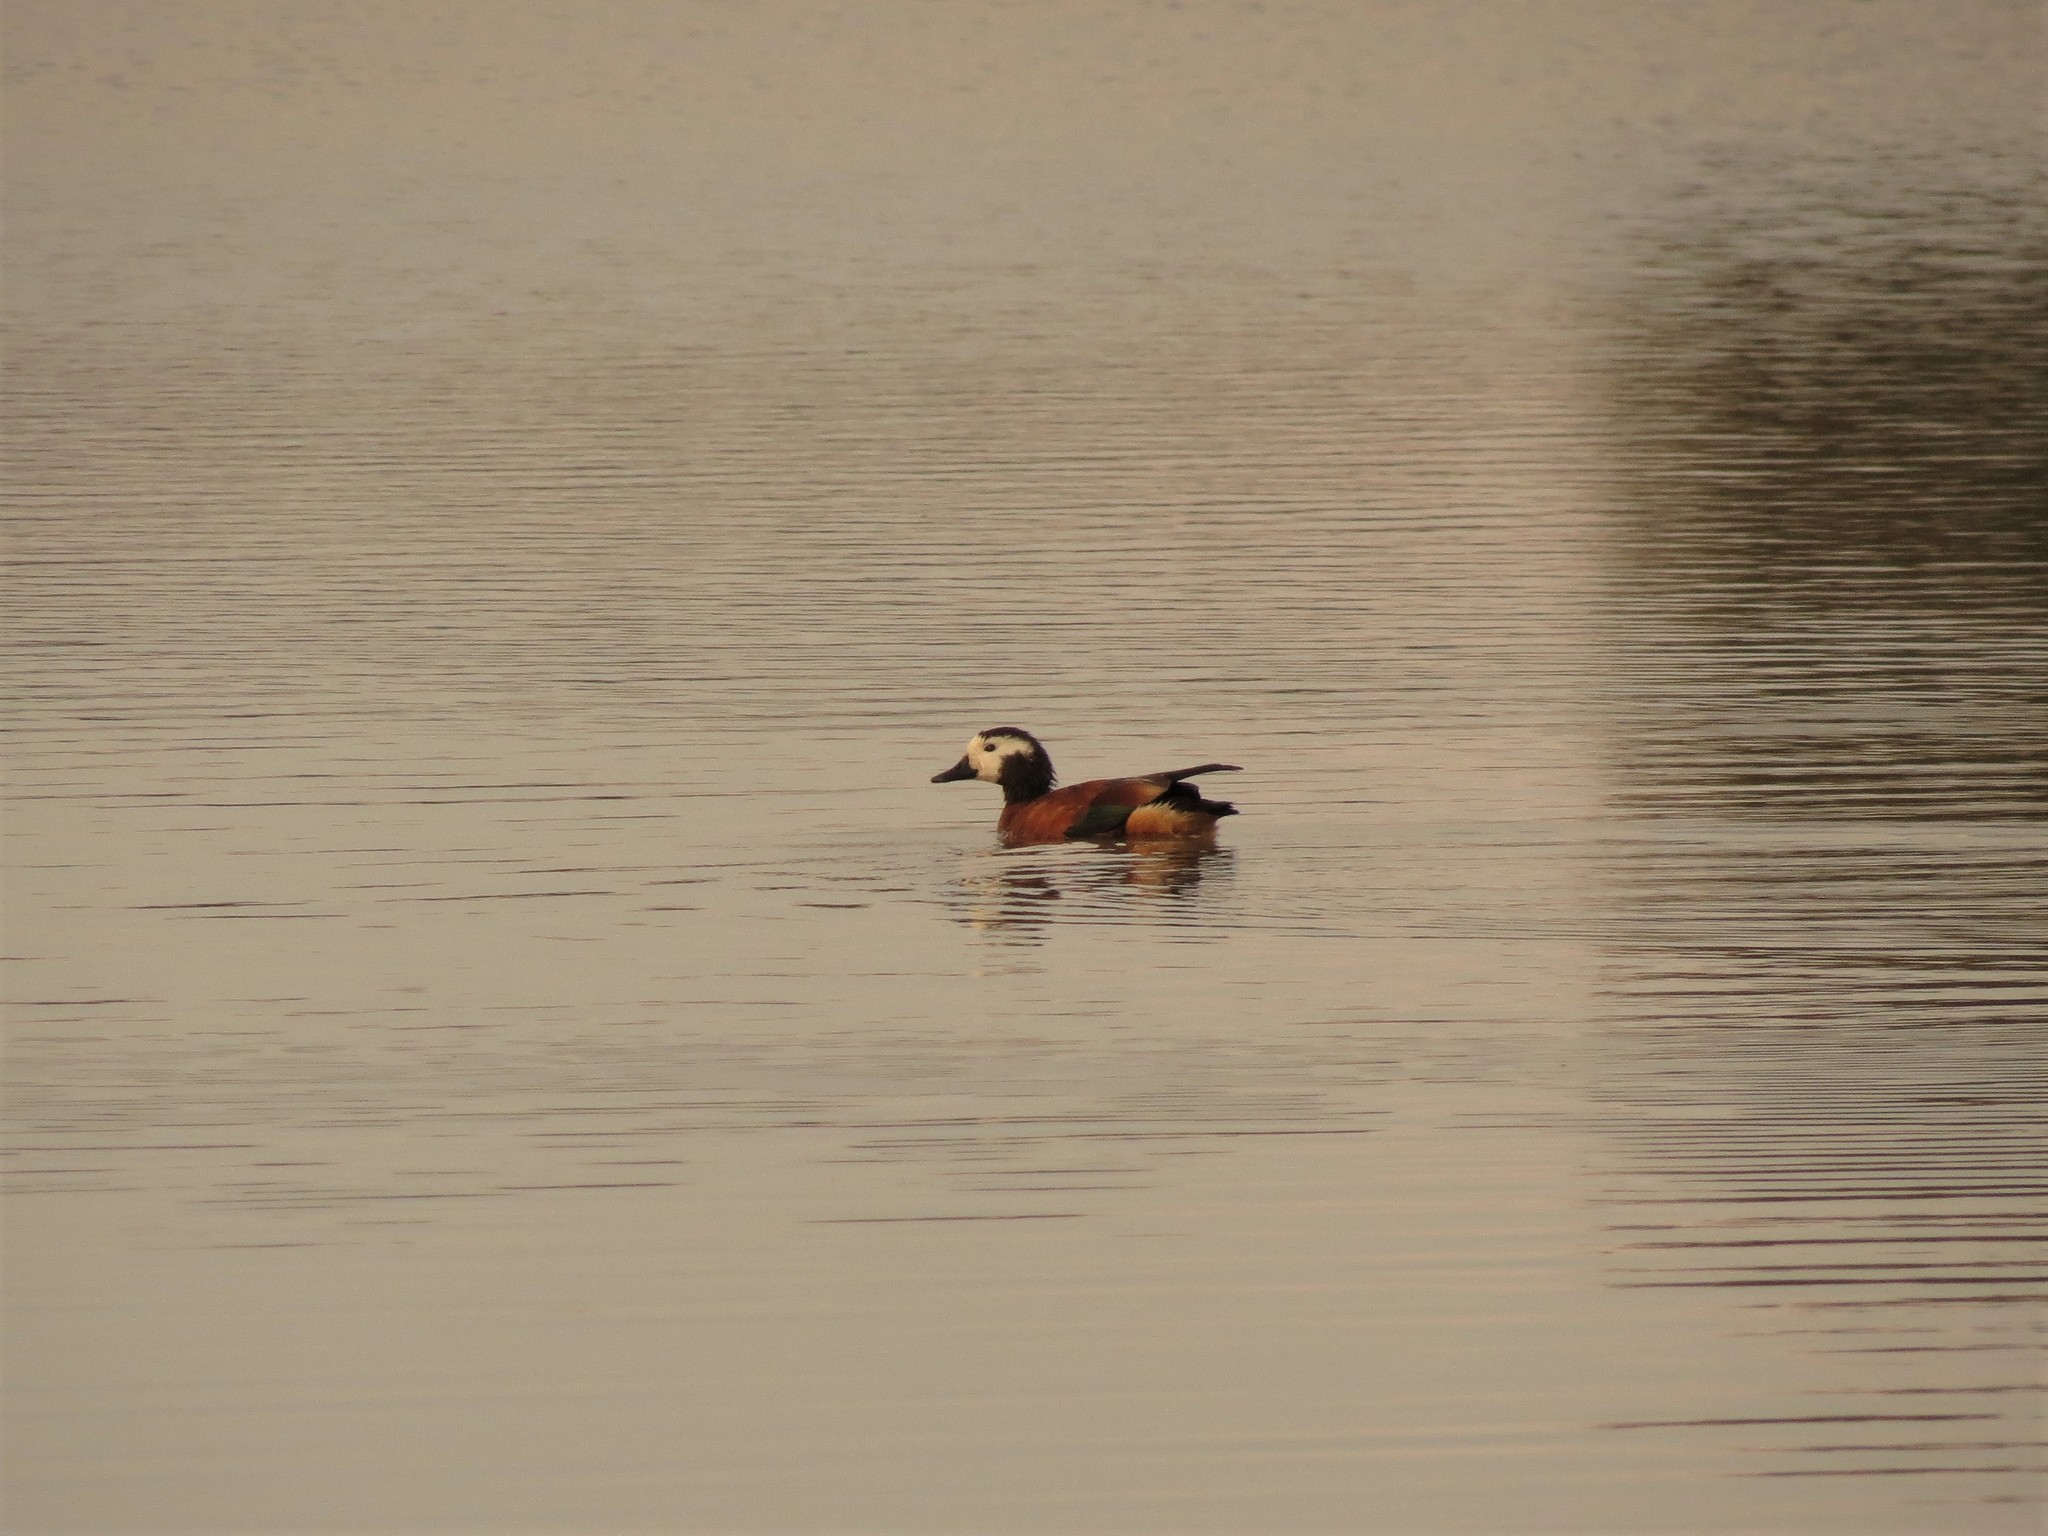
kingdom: Animalia
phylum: Chordata
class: Aves
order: Anseriformes
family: Anatidae
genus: Tadorna
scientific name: Tadorna cana
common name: South african shelduck
